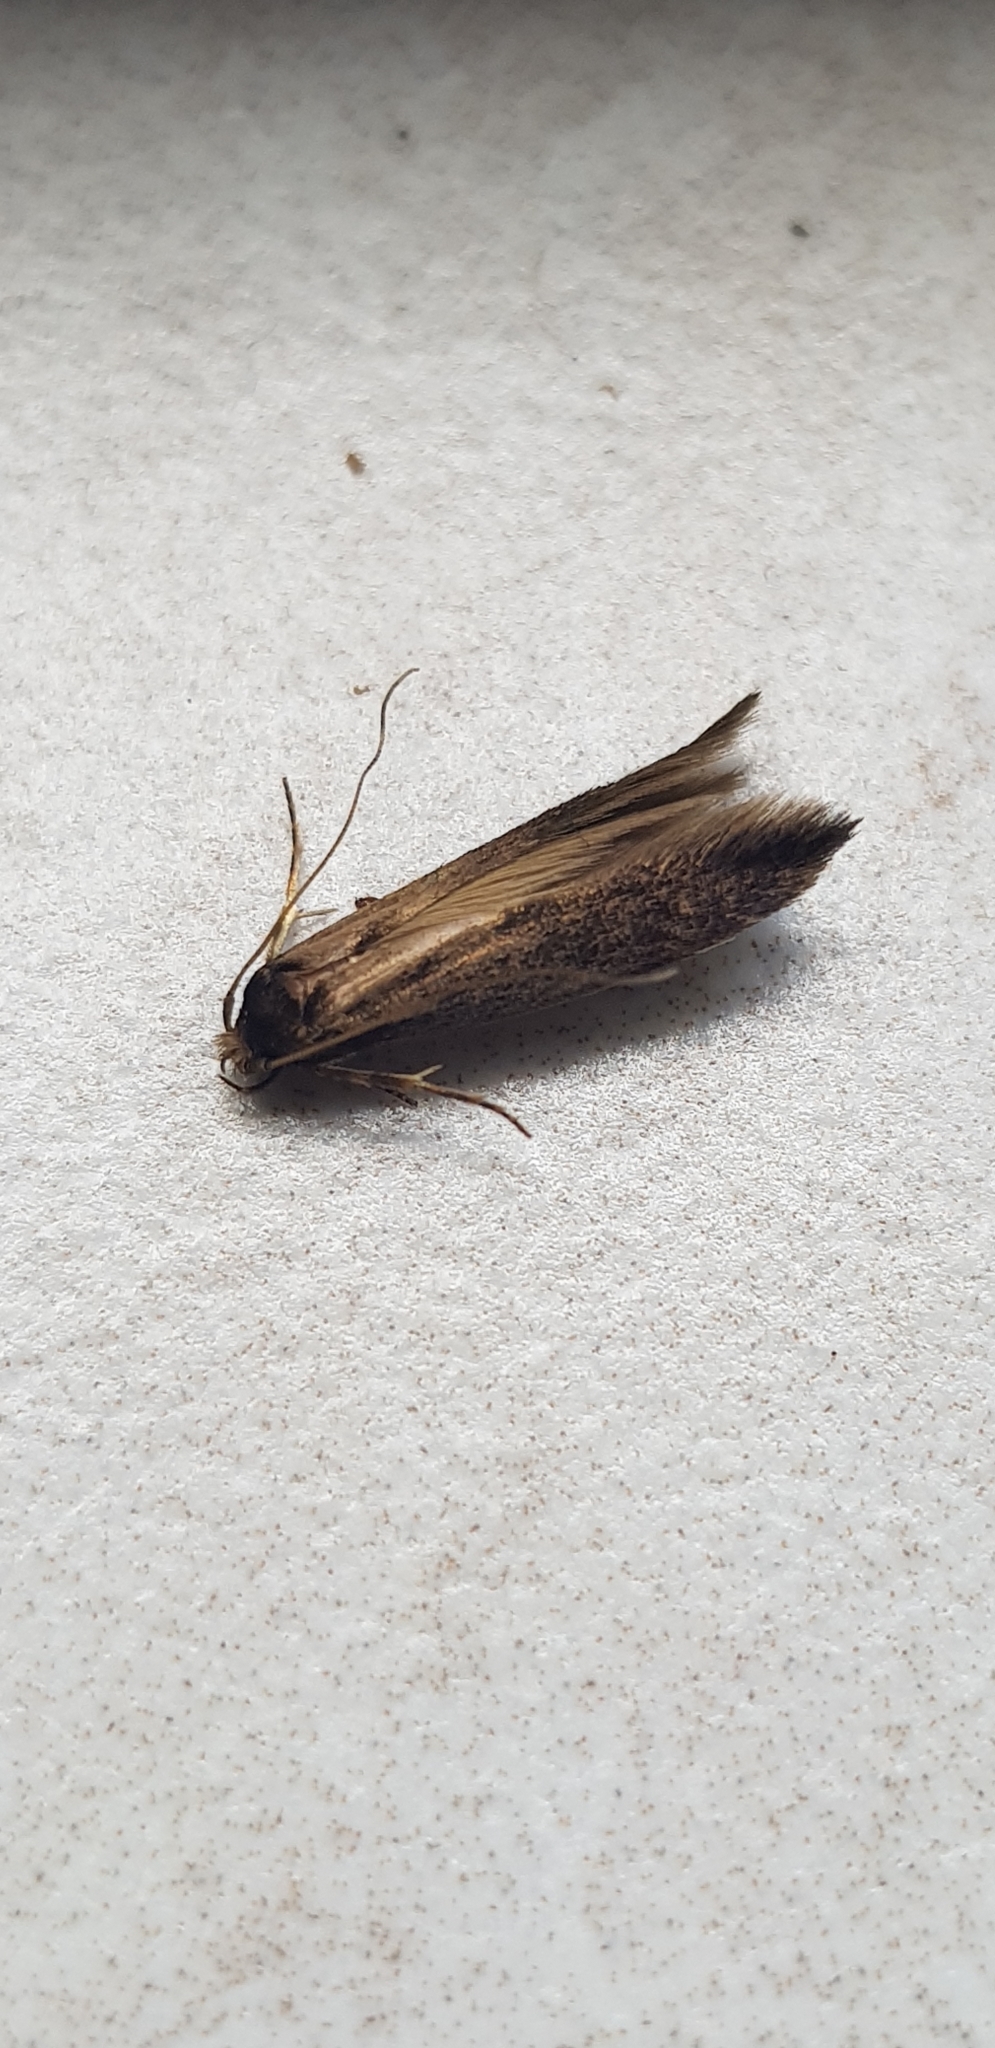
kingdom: Animalia
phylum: Arthropoda
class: Insecta
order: Lepidoptera
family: Tineidae
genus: Opogona
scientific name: Opogona omoscopa
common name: Moth
